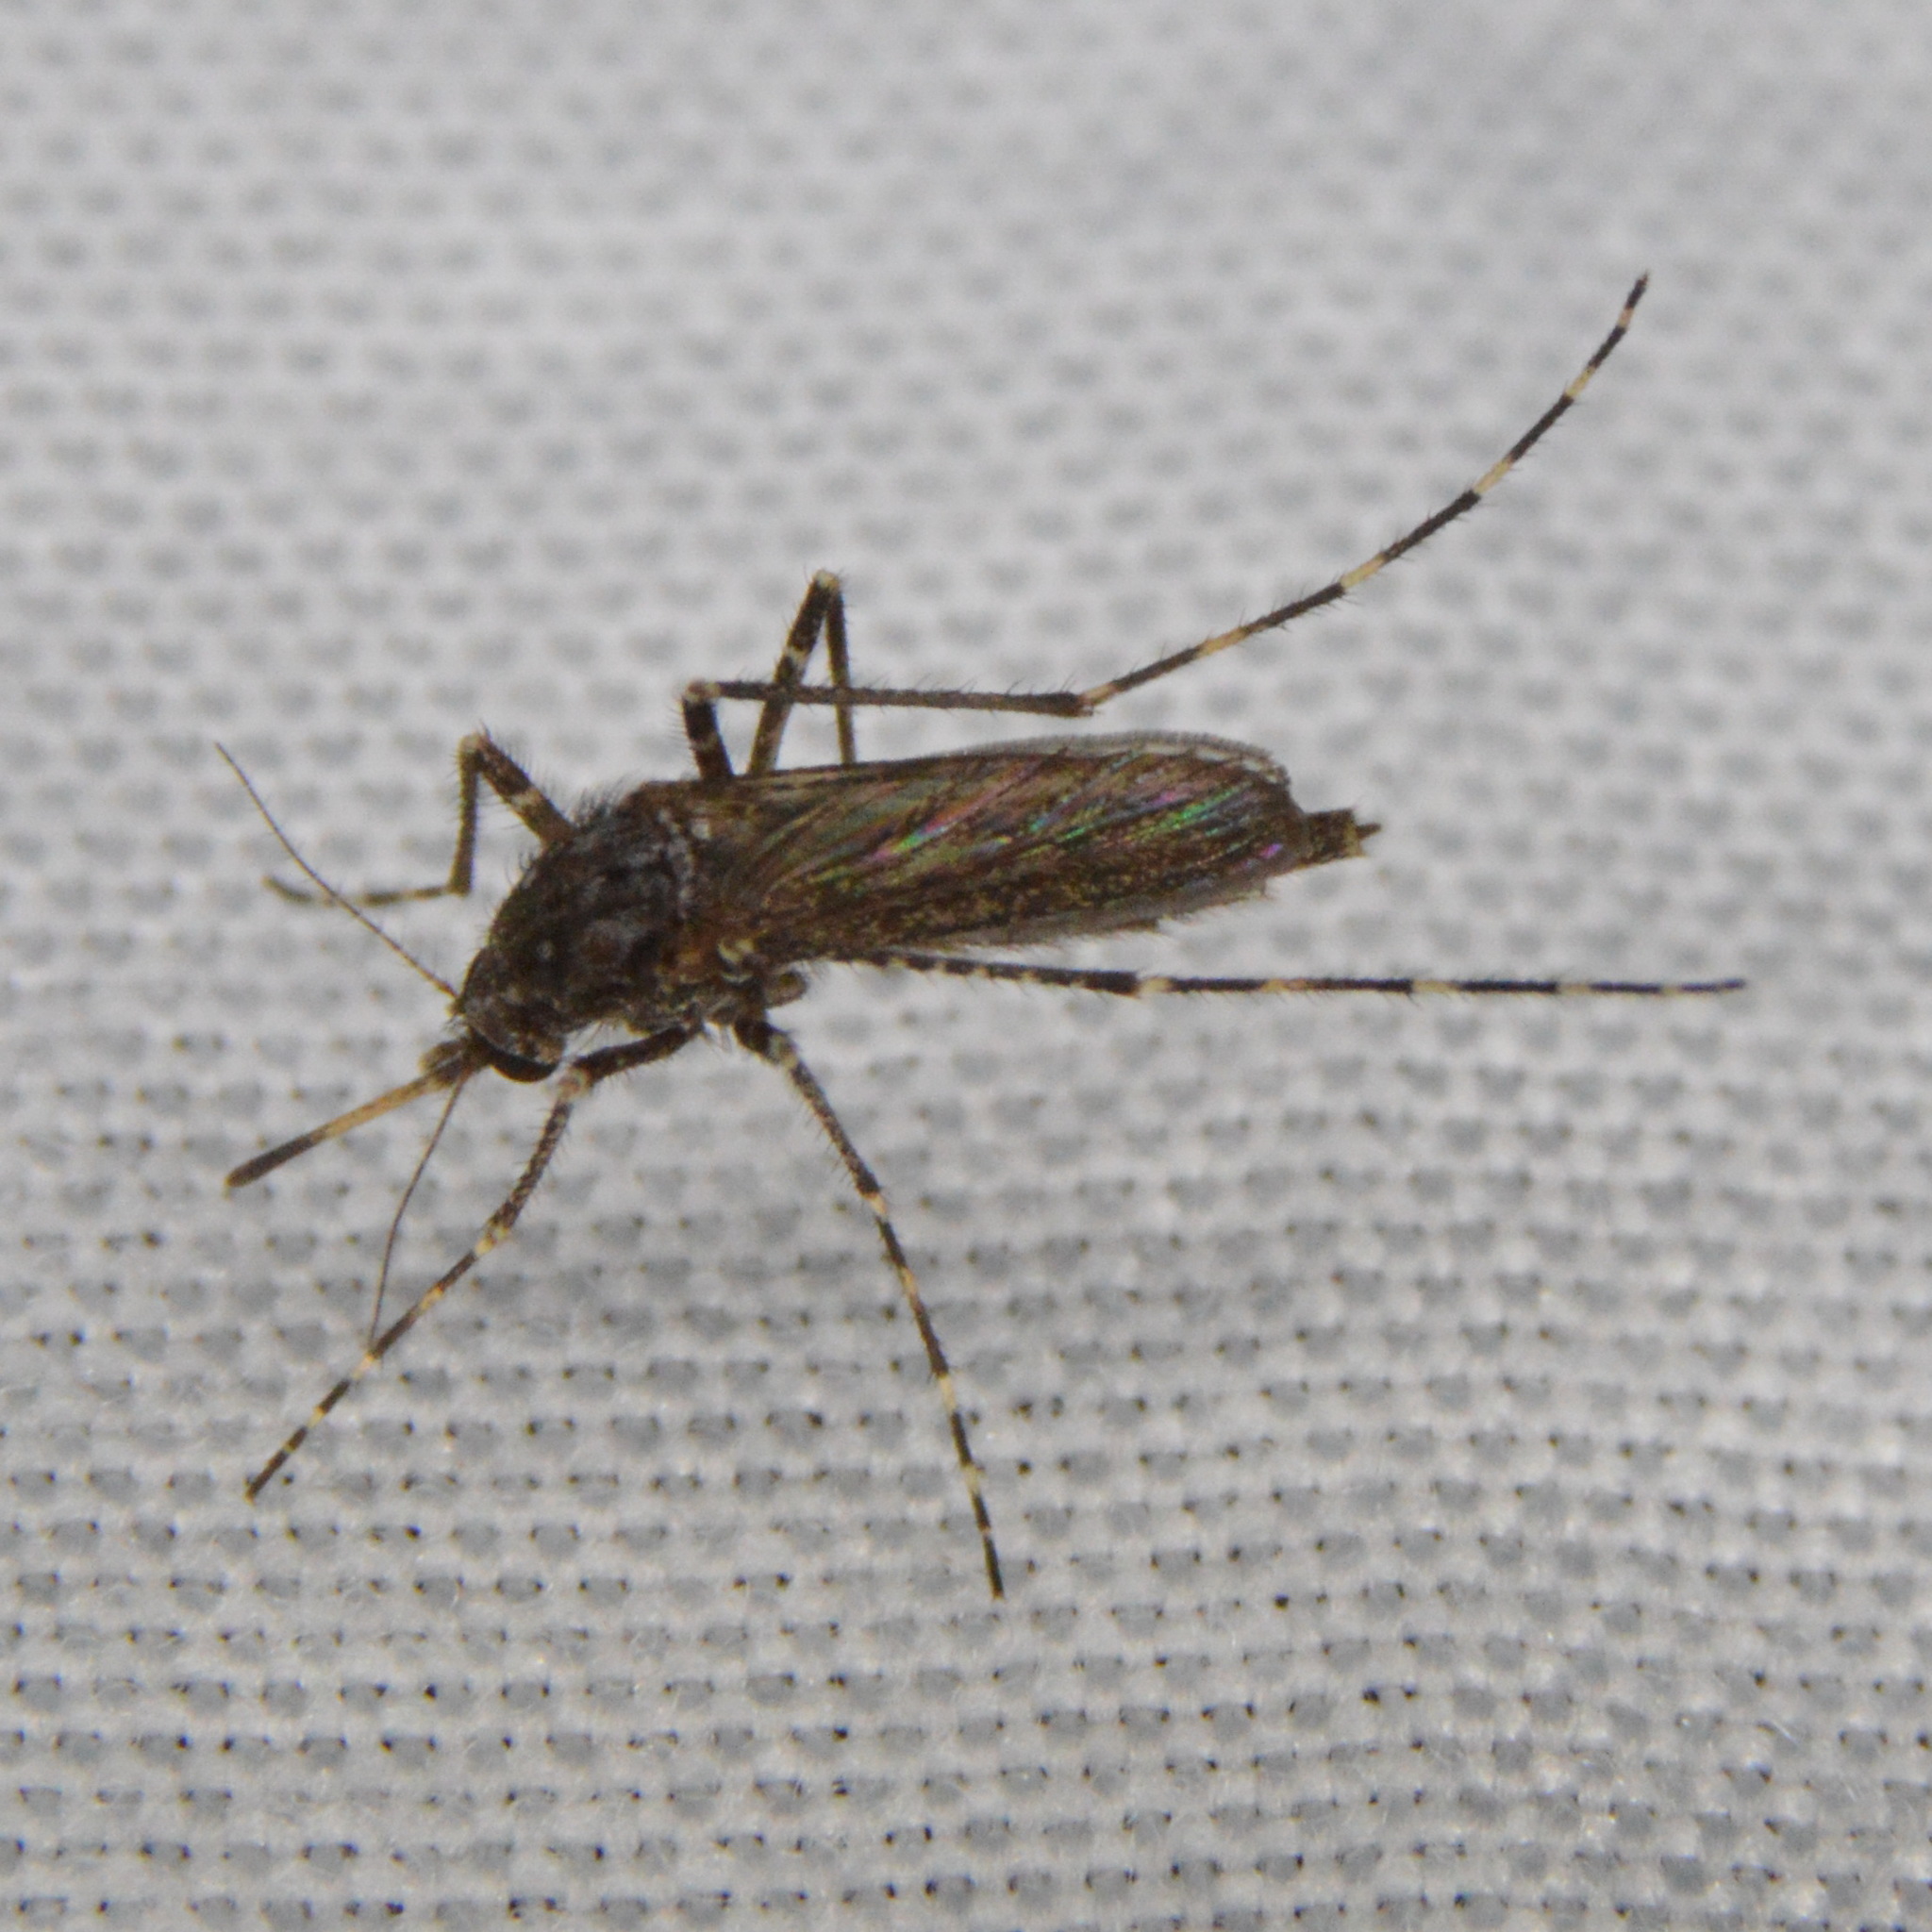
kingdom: Animalia
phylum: Arthropoda
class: Insecta
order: Diptera
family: Culicidae
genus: Psorophora
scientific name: Psorophora columbiae
